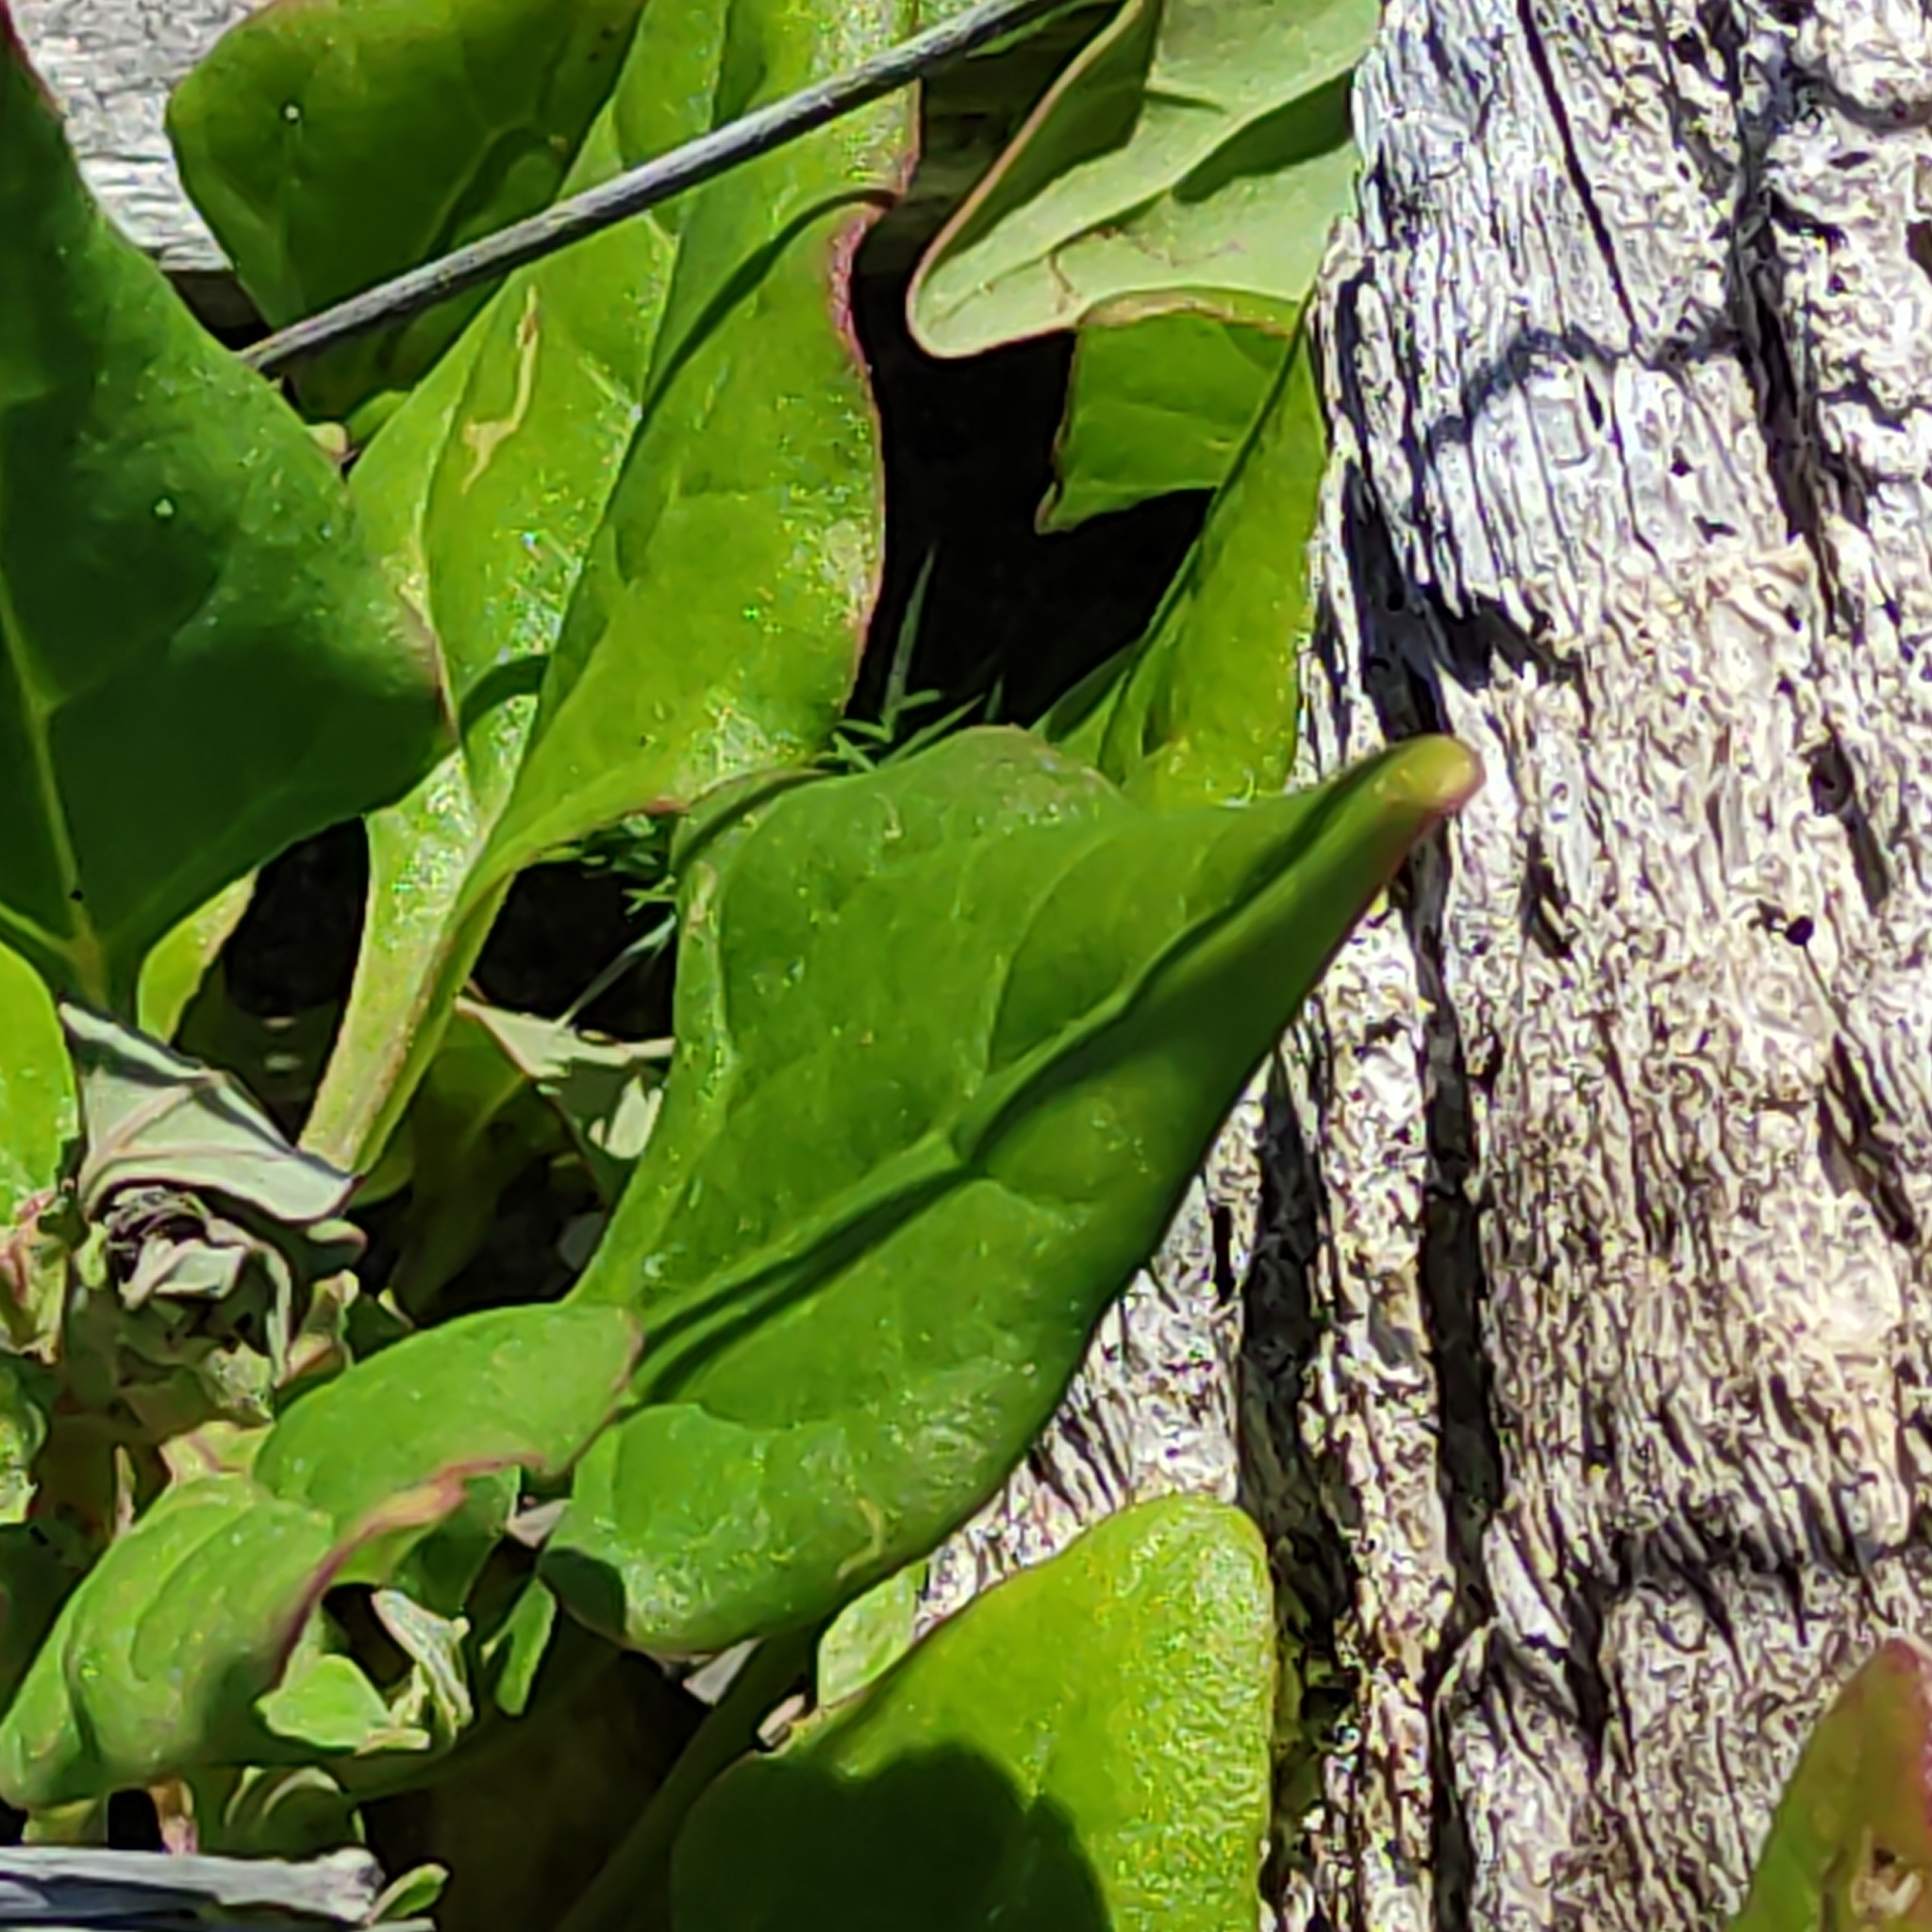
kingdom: Plantae
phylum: Tracheophyta
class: Magnoliopsida
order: Caryophyllales
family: Aizoaceae
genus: Tetragonia
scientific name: Tetragonia tetragonoides
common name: New zealand-spinach
